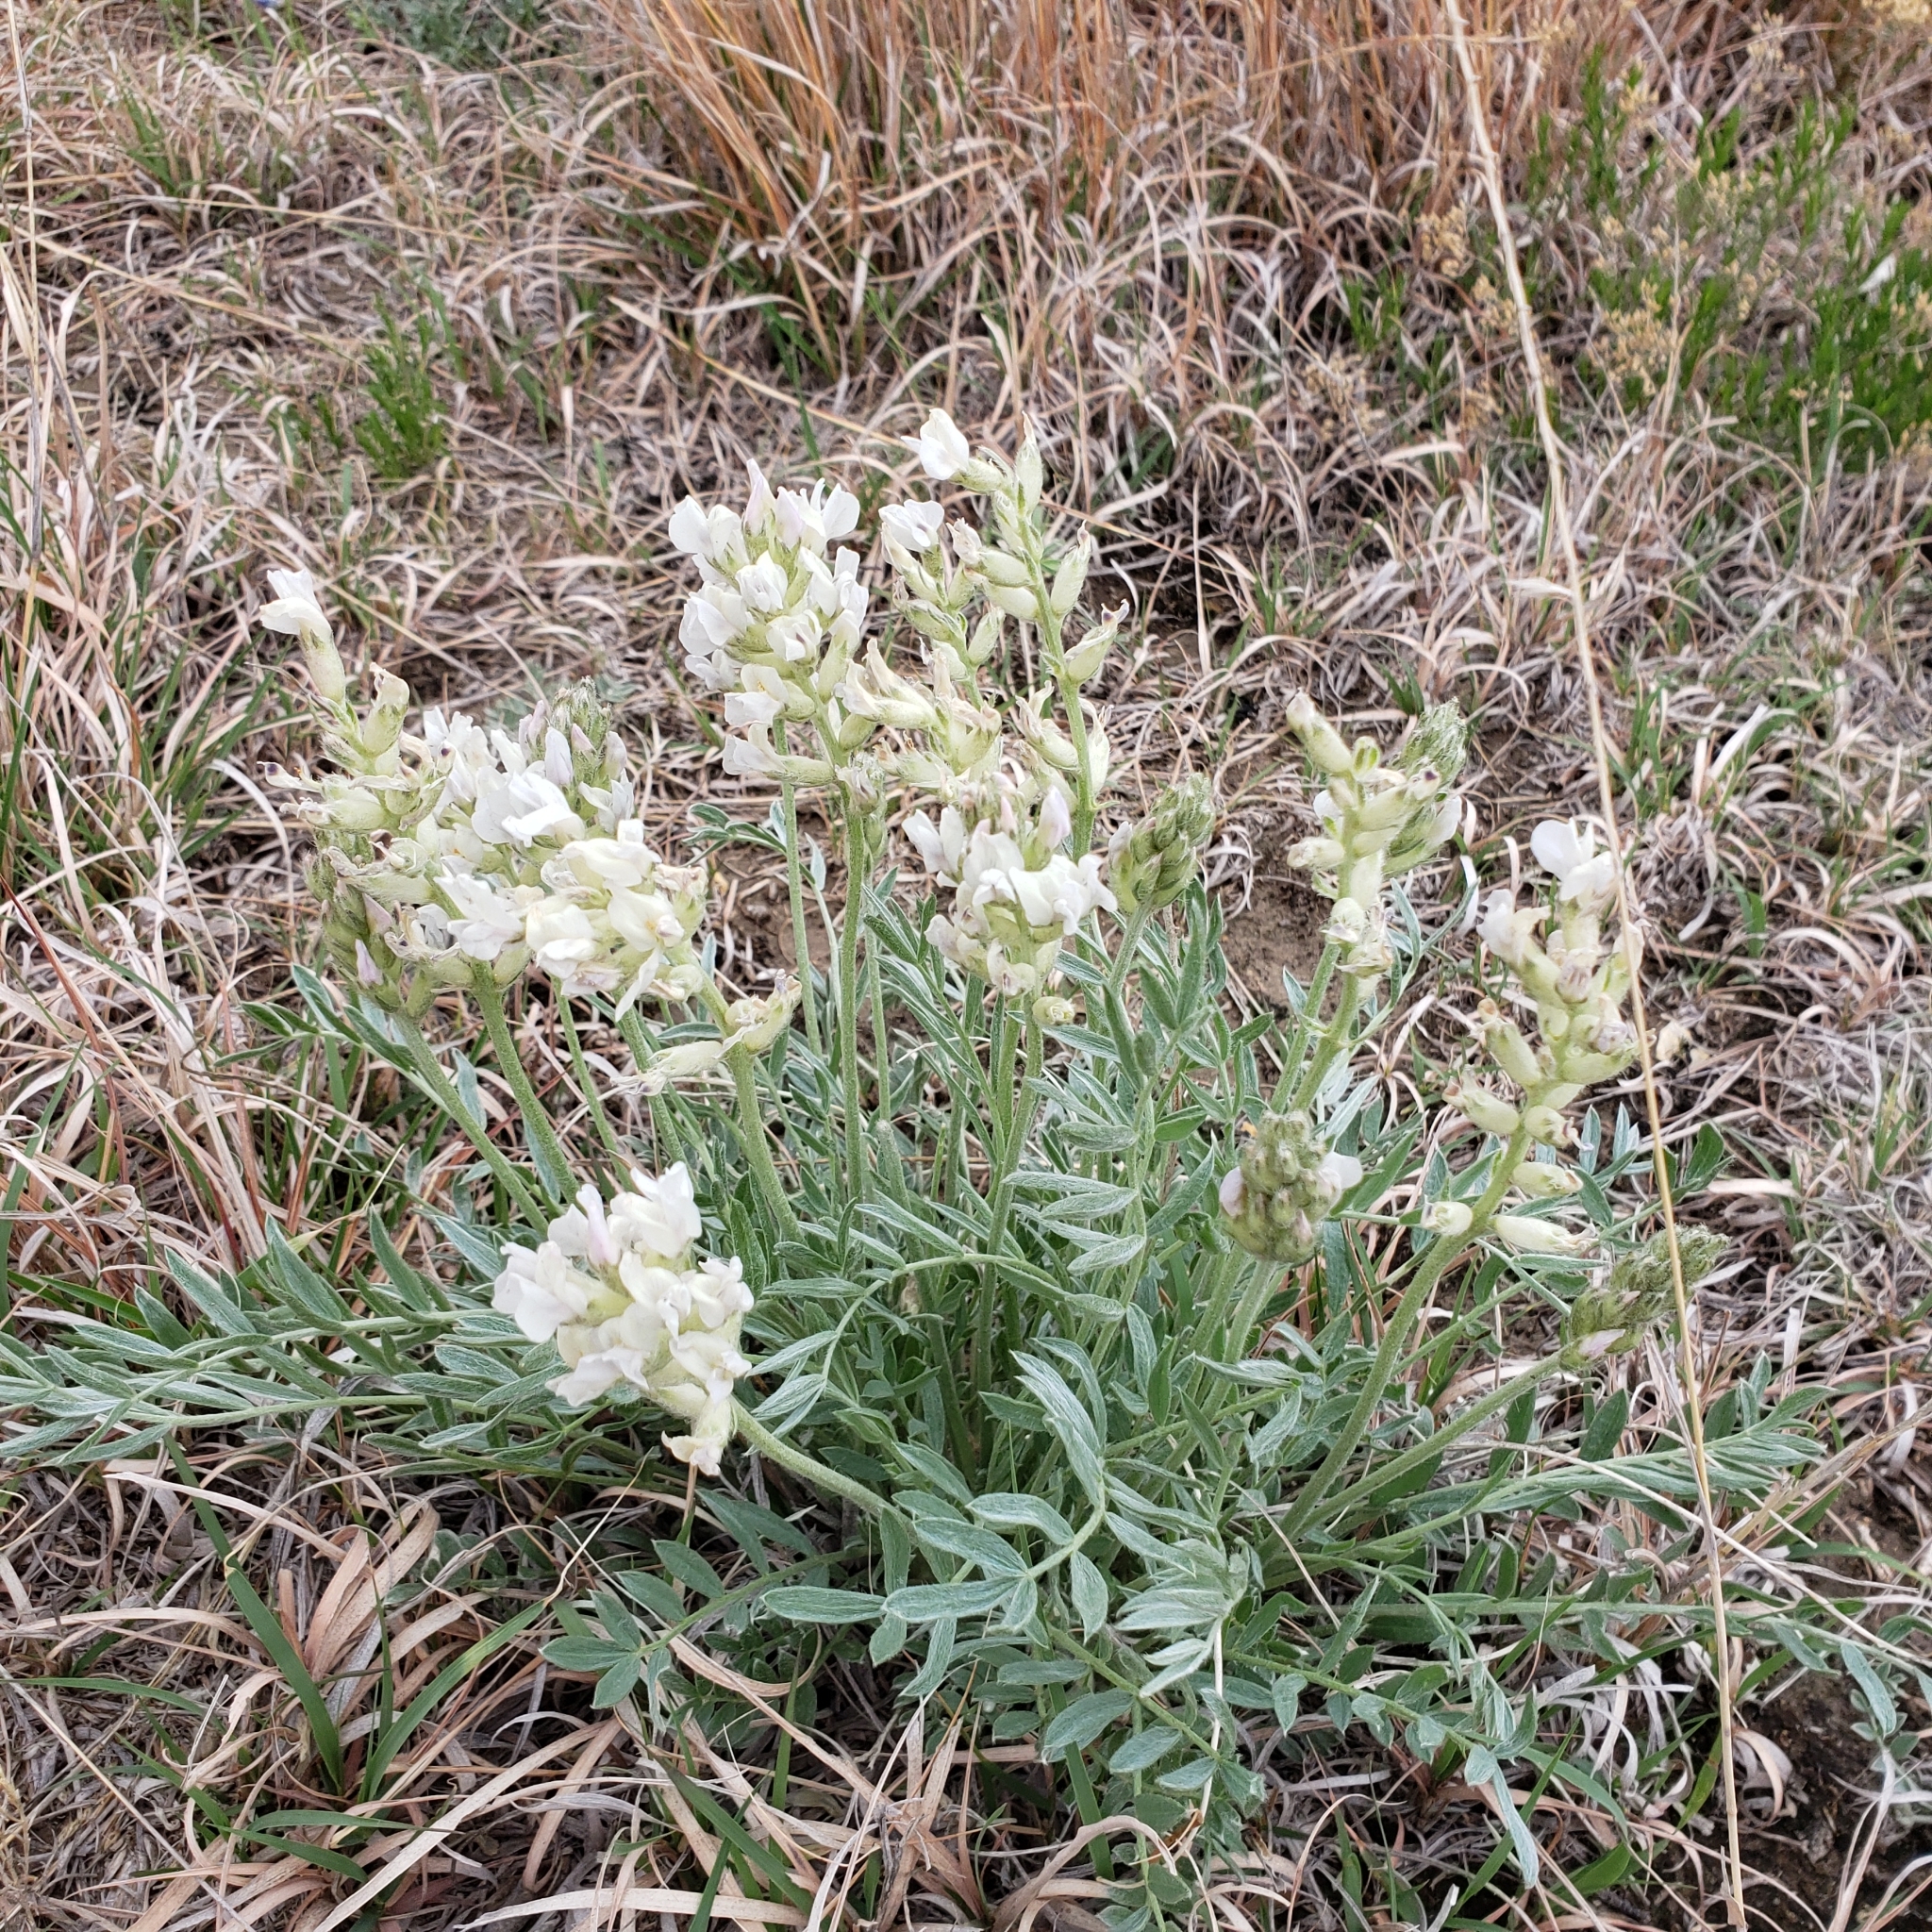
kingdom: Plantae
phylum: Tracheophyta
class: Magnoliopsida
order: Fabales
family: Fabaceae
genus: Oxytropis
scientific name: Oxytropis sericea
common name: Silky locoweed
